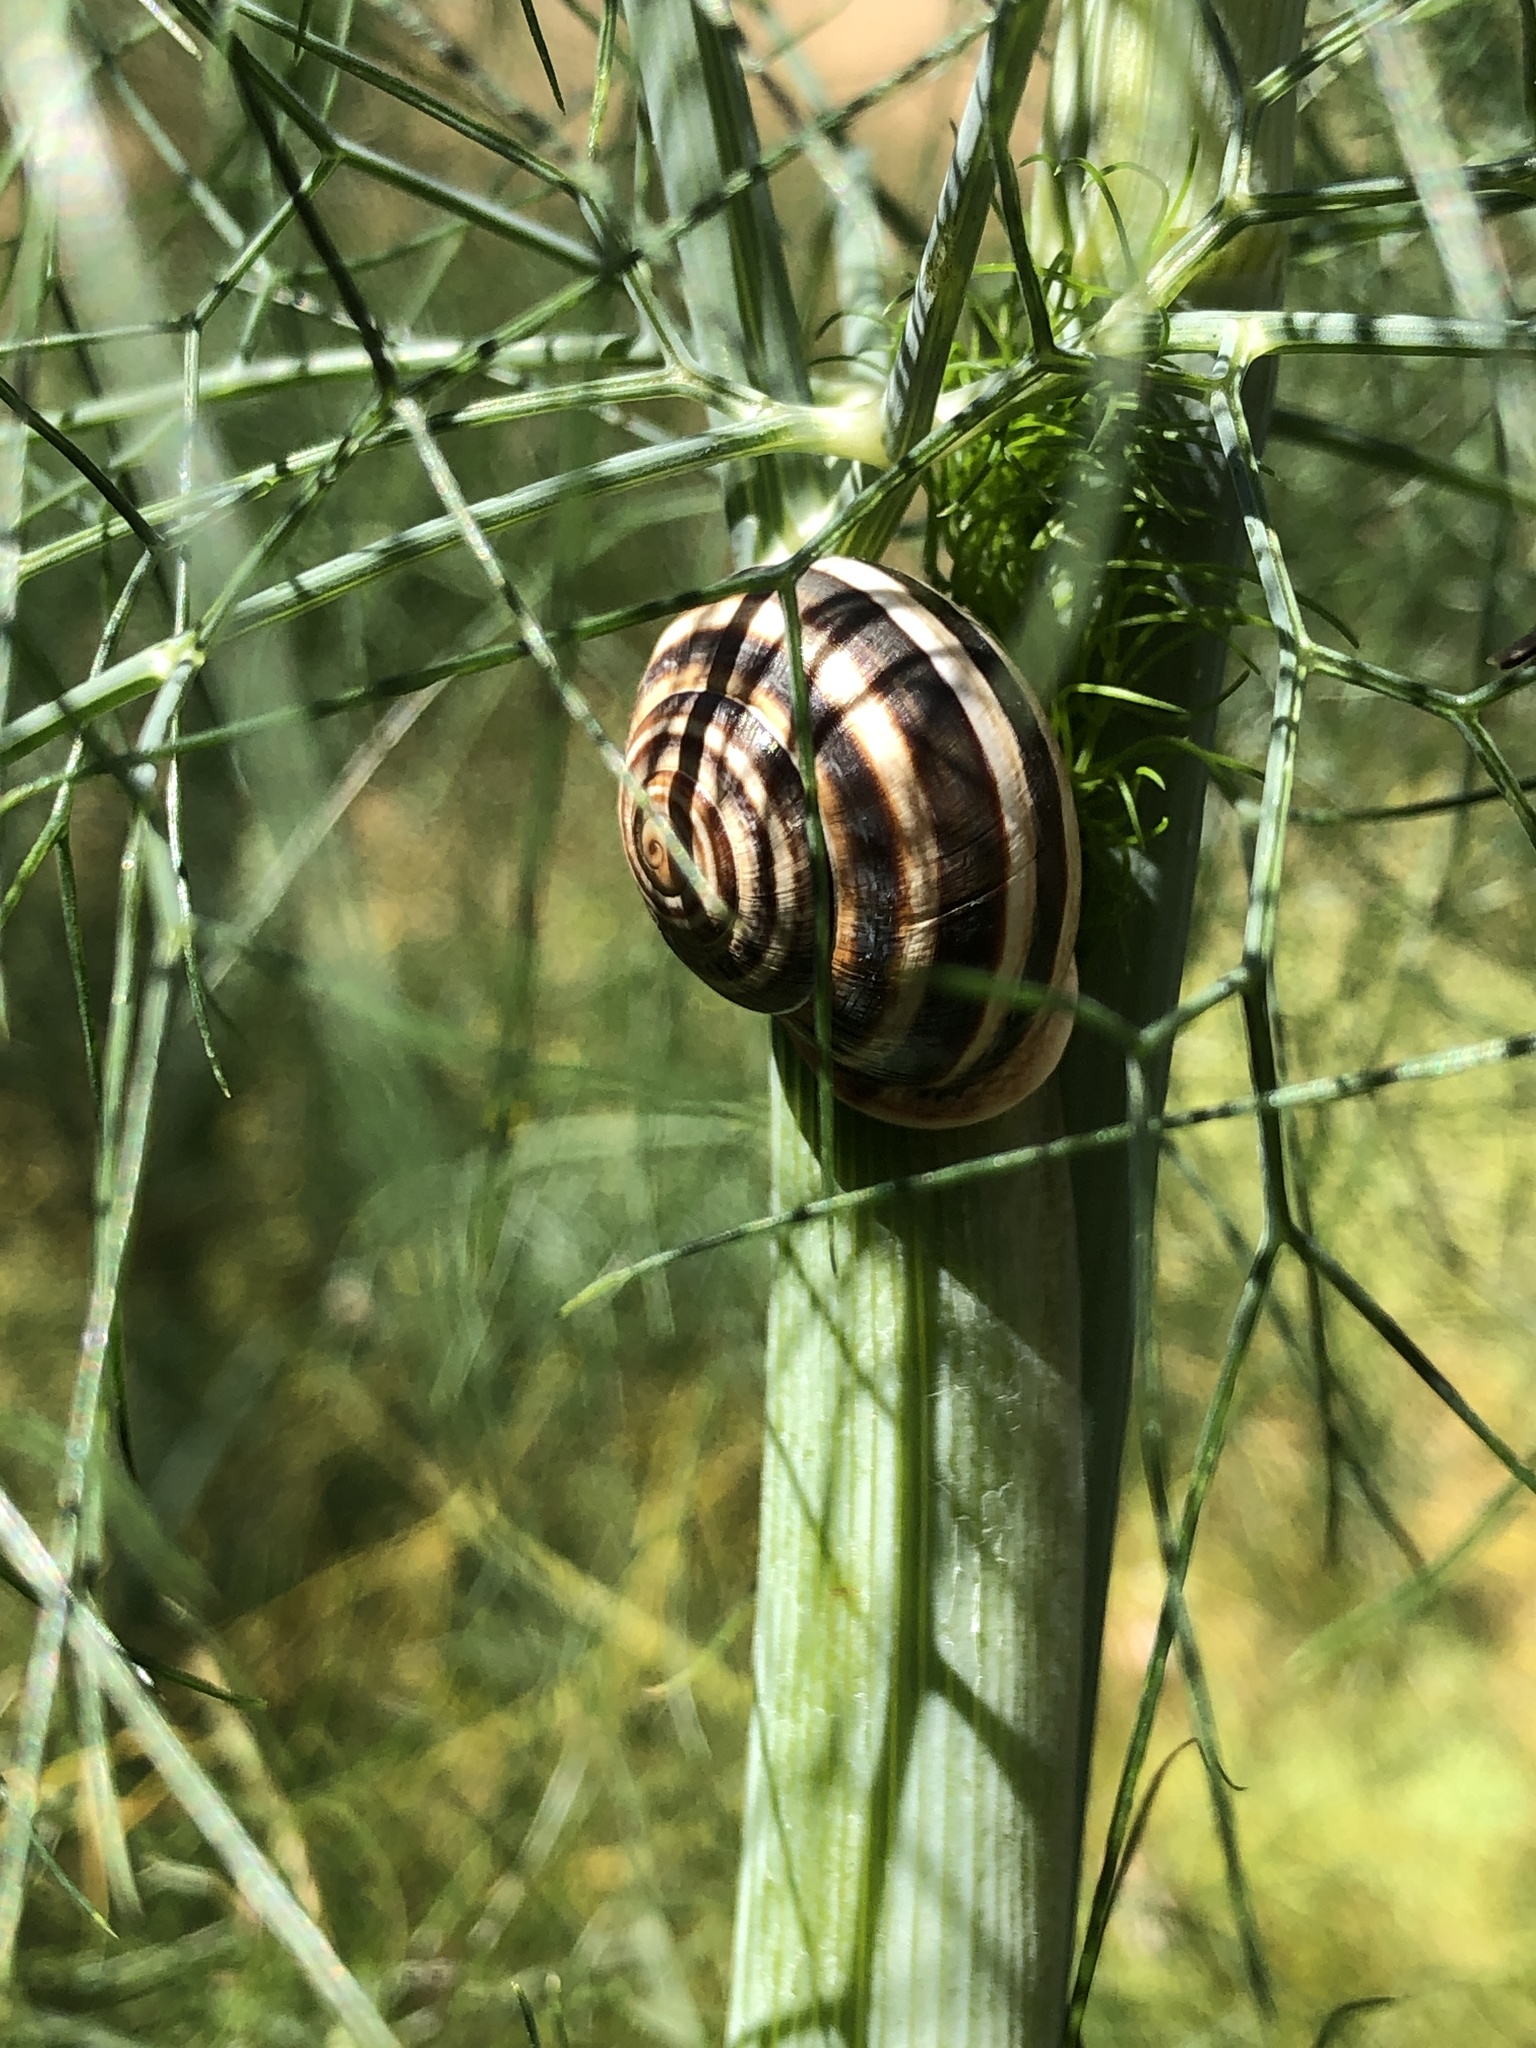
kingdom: Animalia
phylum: Mollusca
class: Gastropoda
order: Stylommatophora
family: Helicidae
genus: Otala
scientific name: Otala lactea
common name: Milk snail
